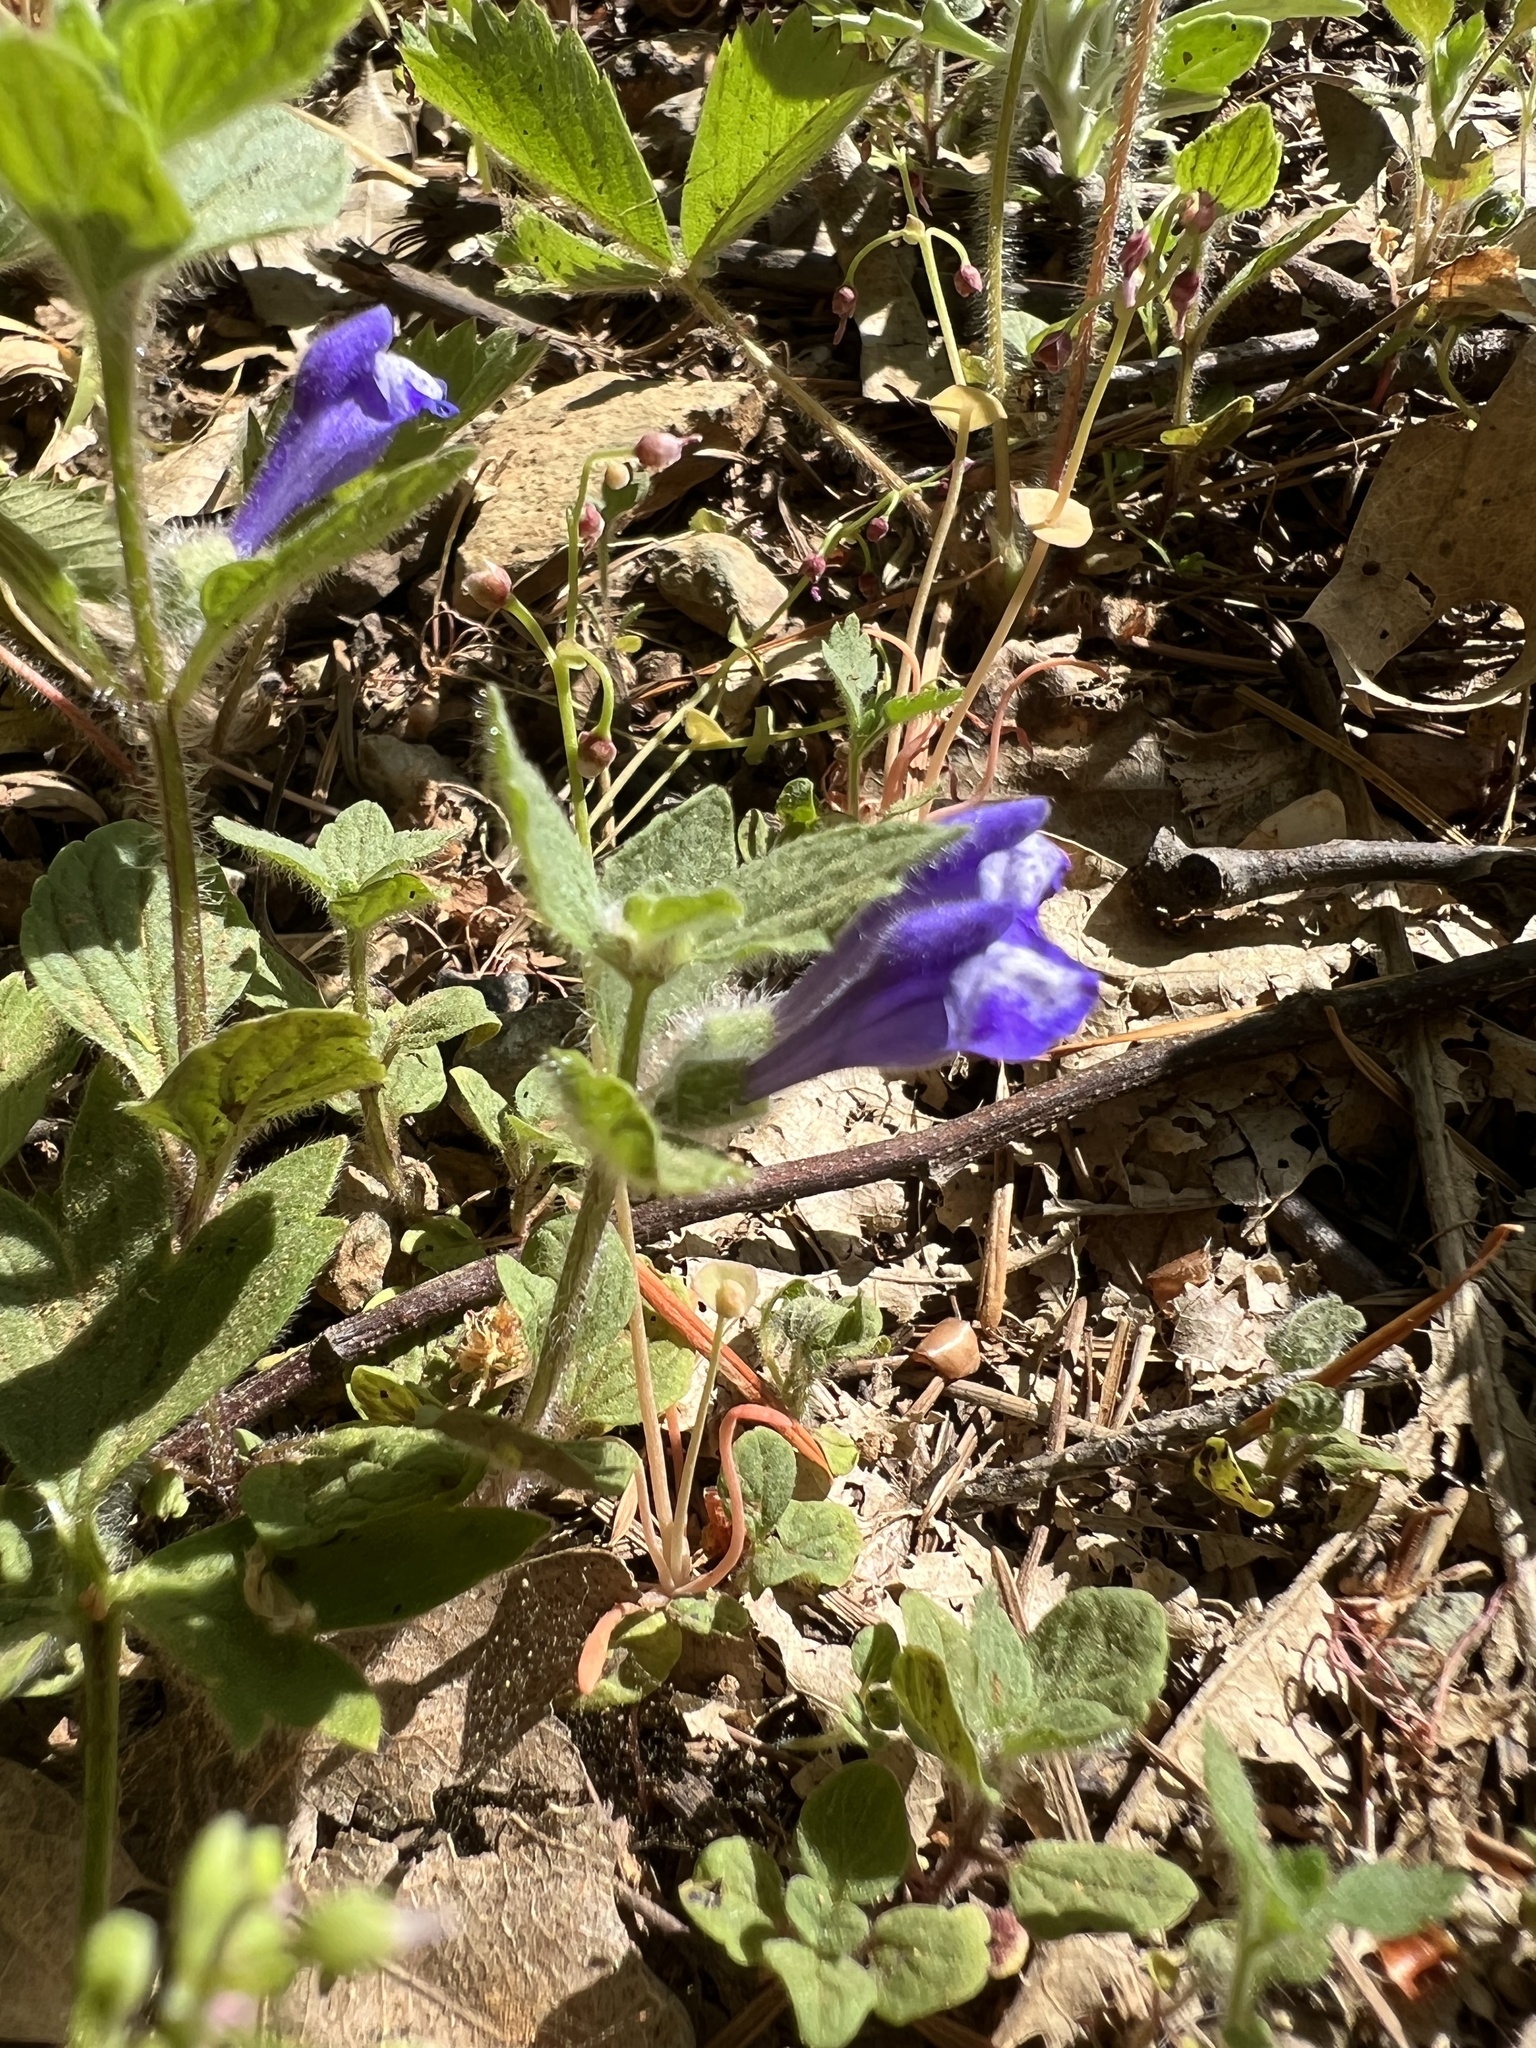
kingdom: Plantae
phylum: Tracheophyta
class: Magnoliopsida
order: Lamiales
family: Lamiaceae
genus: Scutellaria
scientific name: Scutellaria tuberosa
